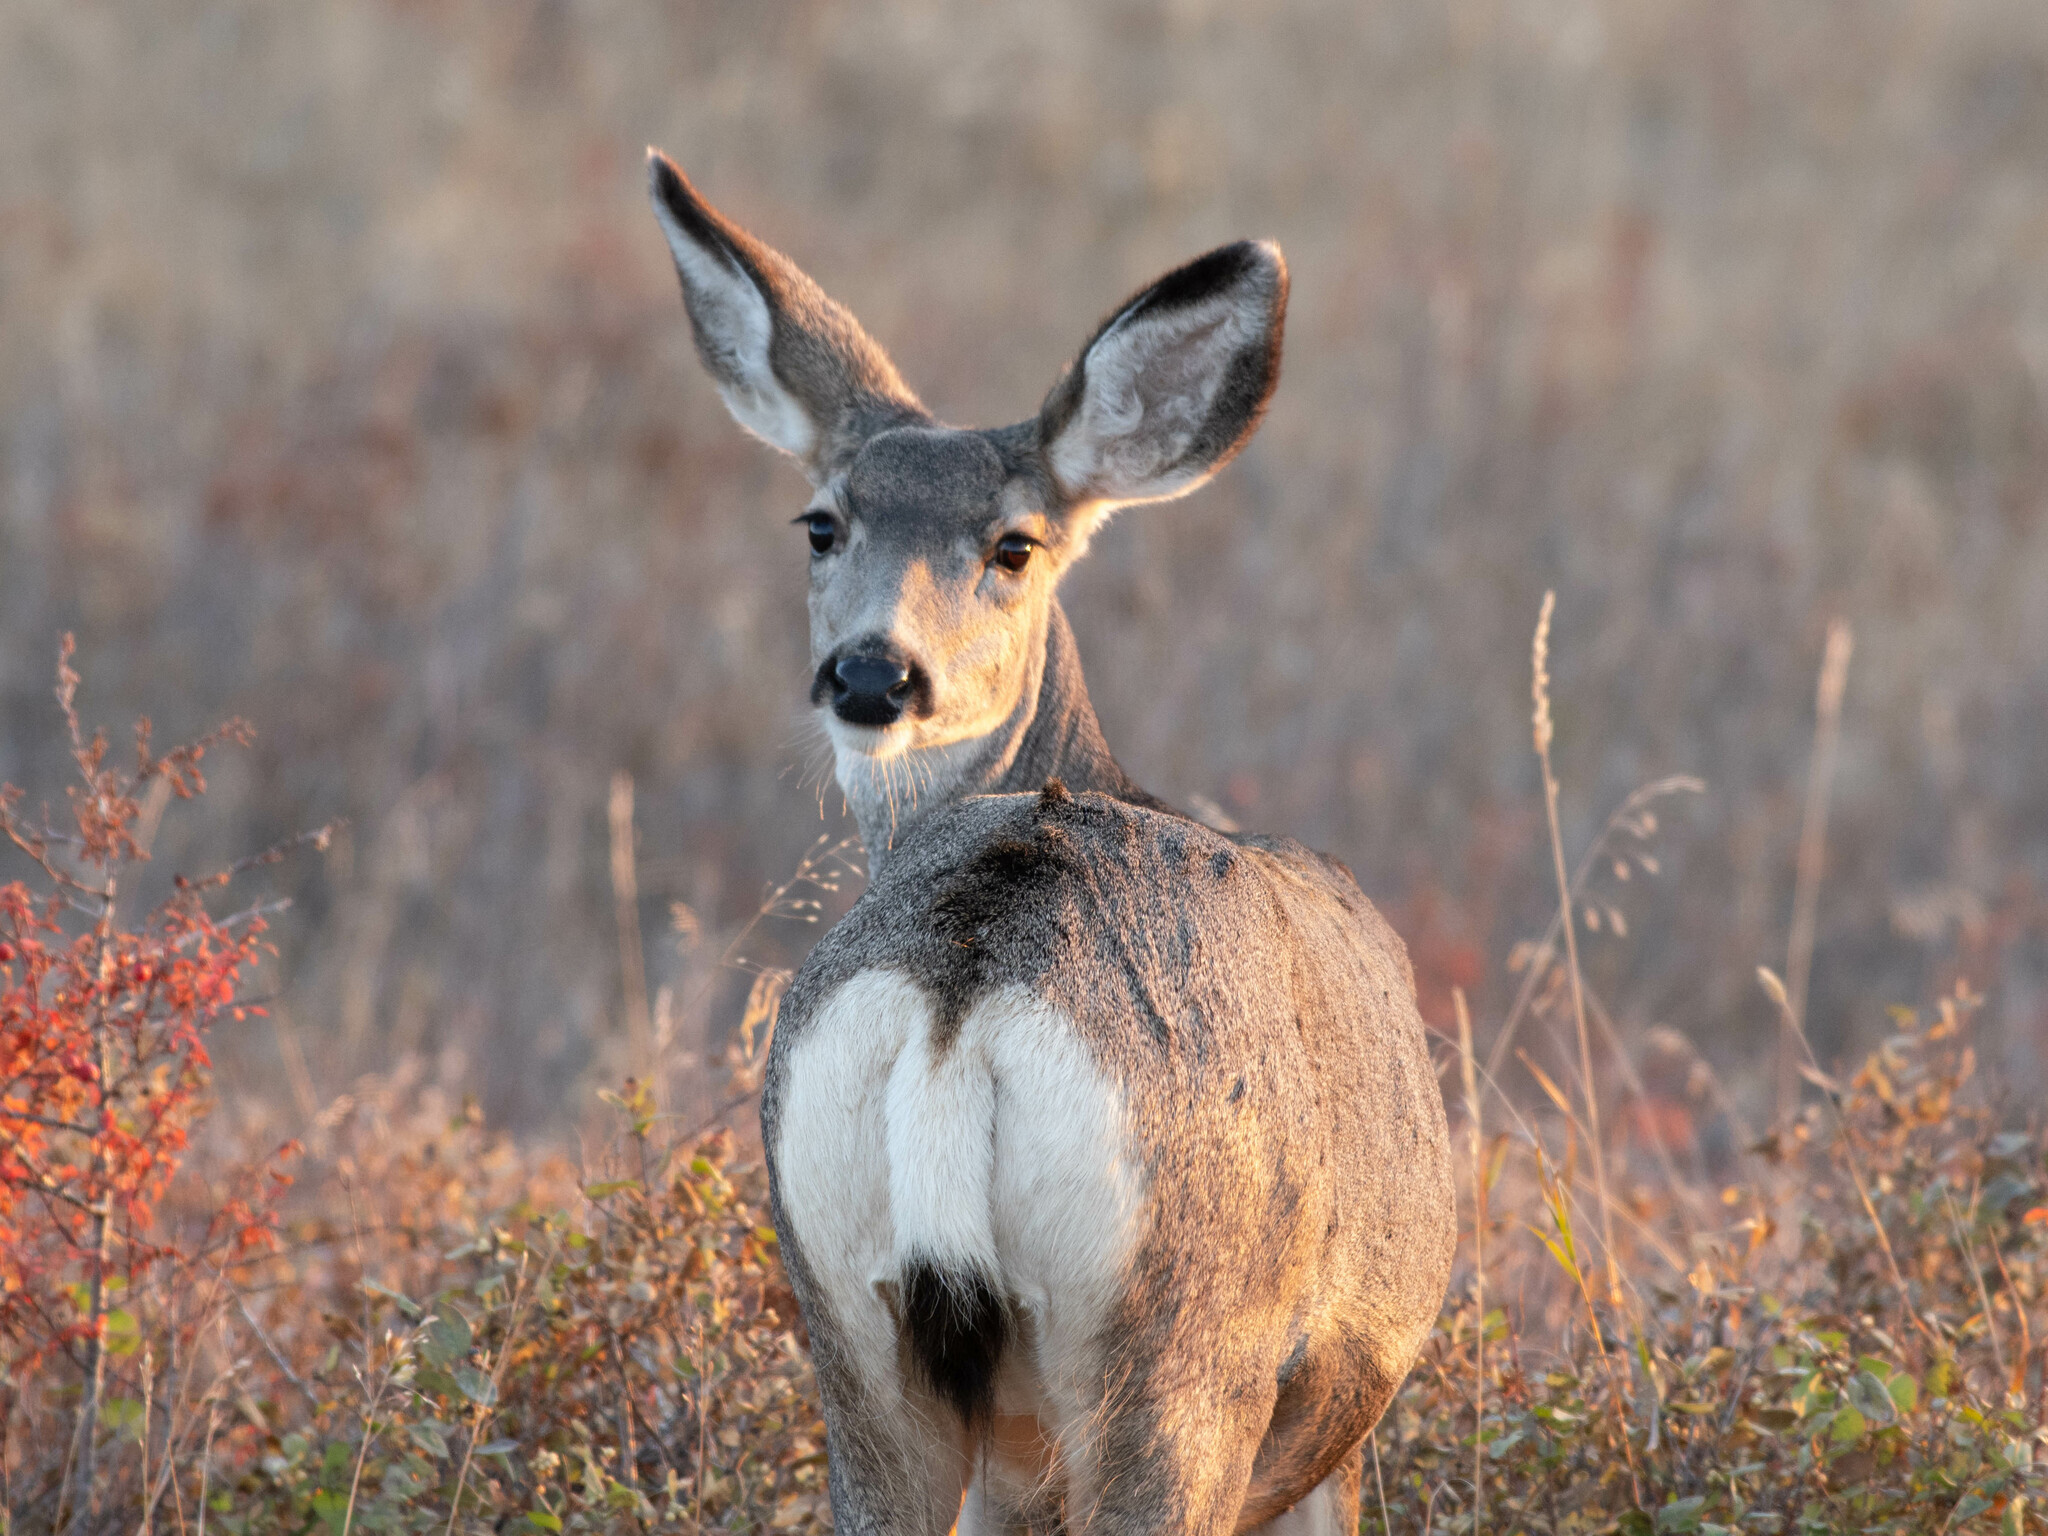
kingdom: Animalia
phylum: Chordata
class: Mammalia
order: Artiodactyla
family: Cervidae
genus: Odocoileus
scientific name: Odocoileus hemionus
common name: Mule deer
